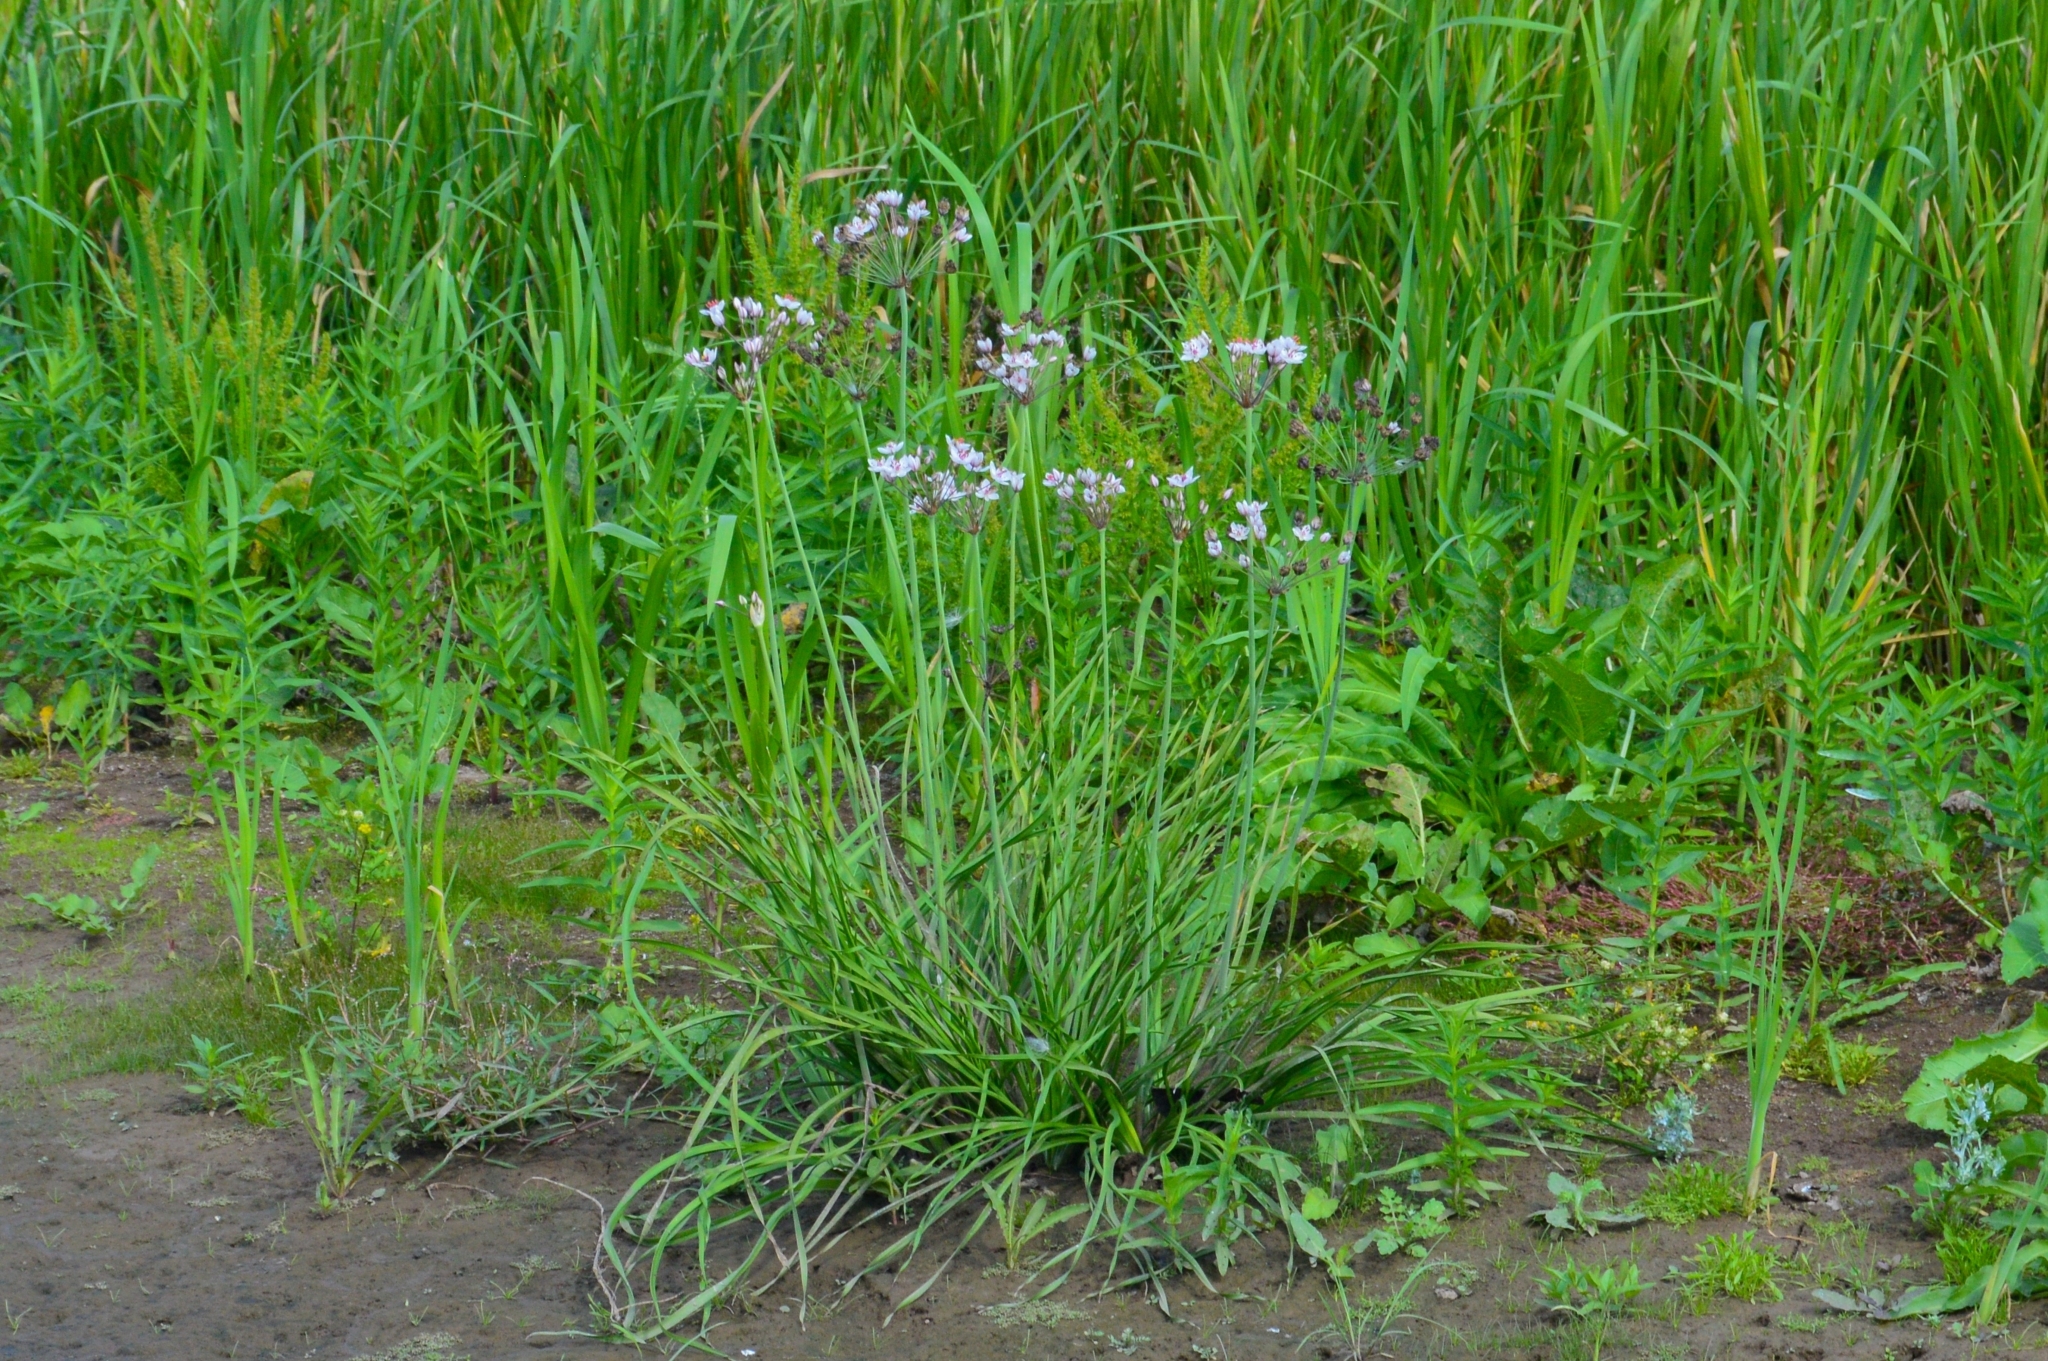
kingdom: Plantae
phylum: Tracheophyta
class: Liliopsida
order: Alismatales
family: Butomaceae
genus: Butomus
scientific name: Butomus umbellatus
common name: Flowering-rush
